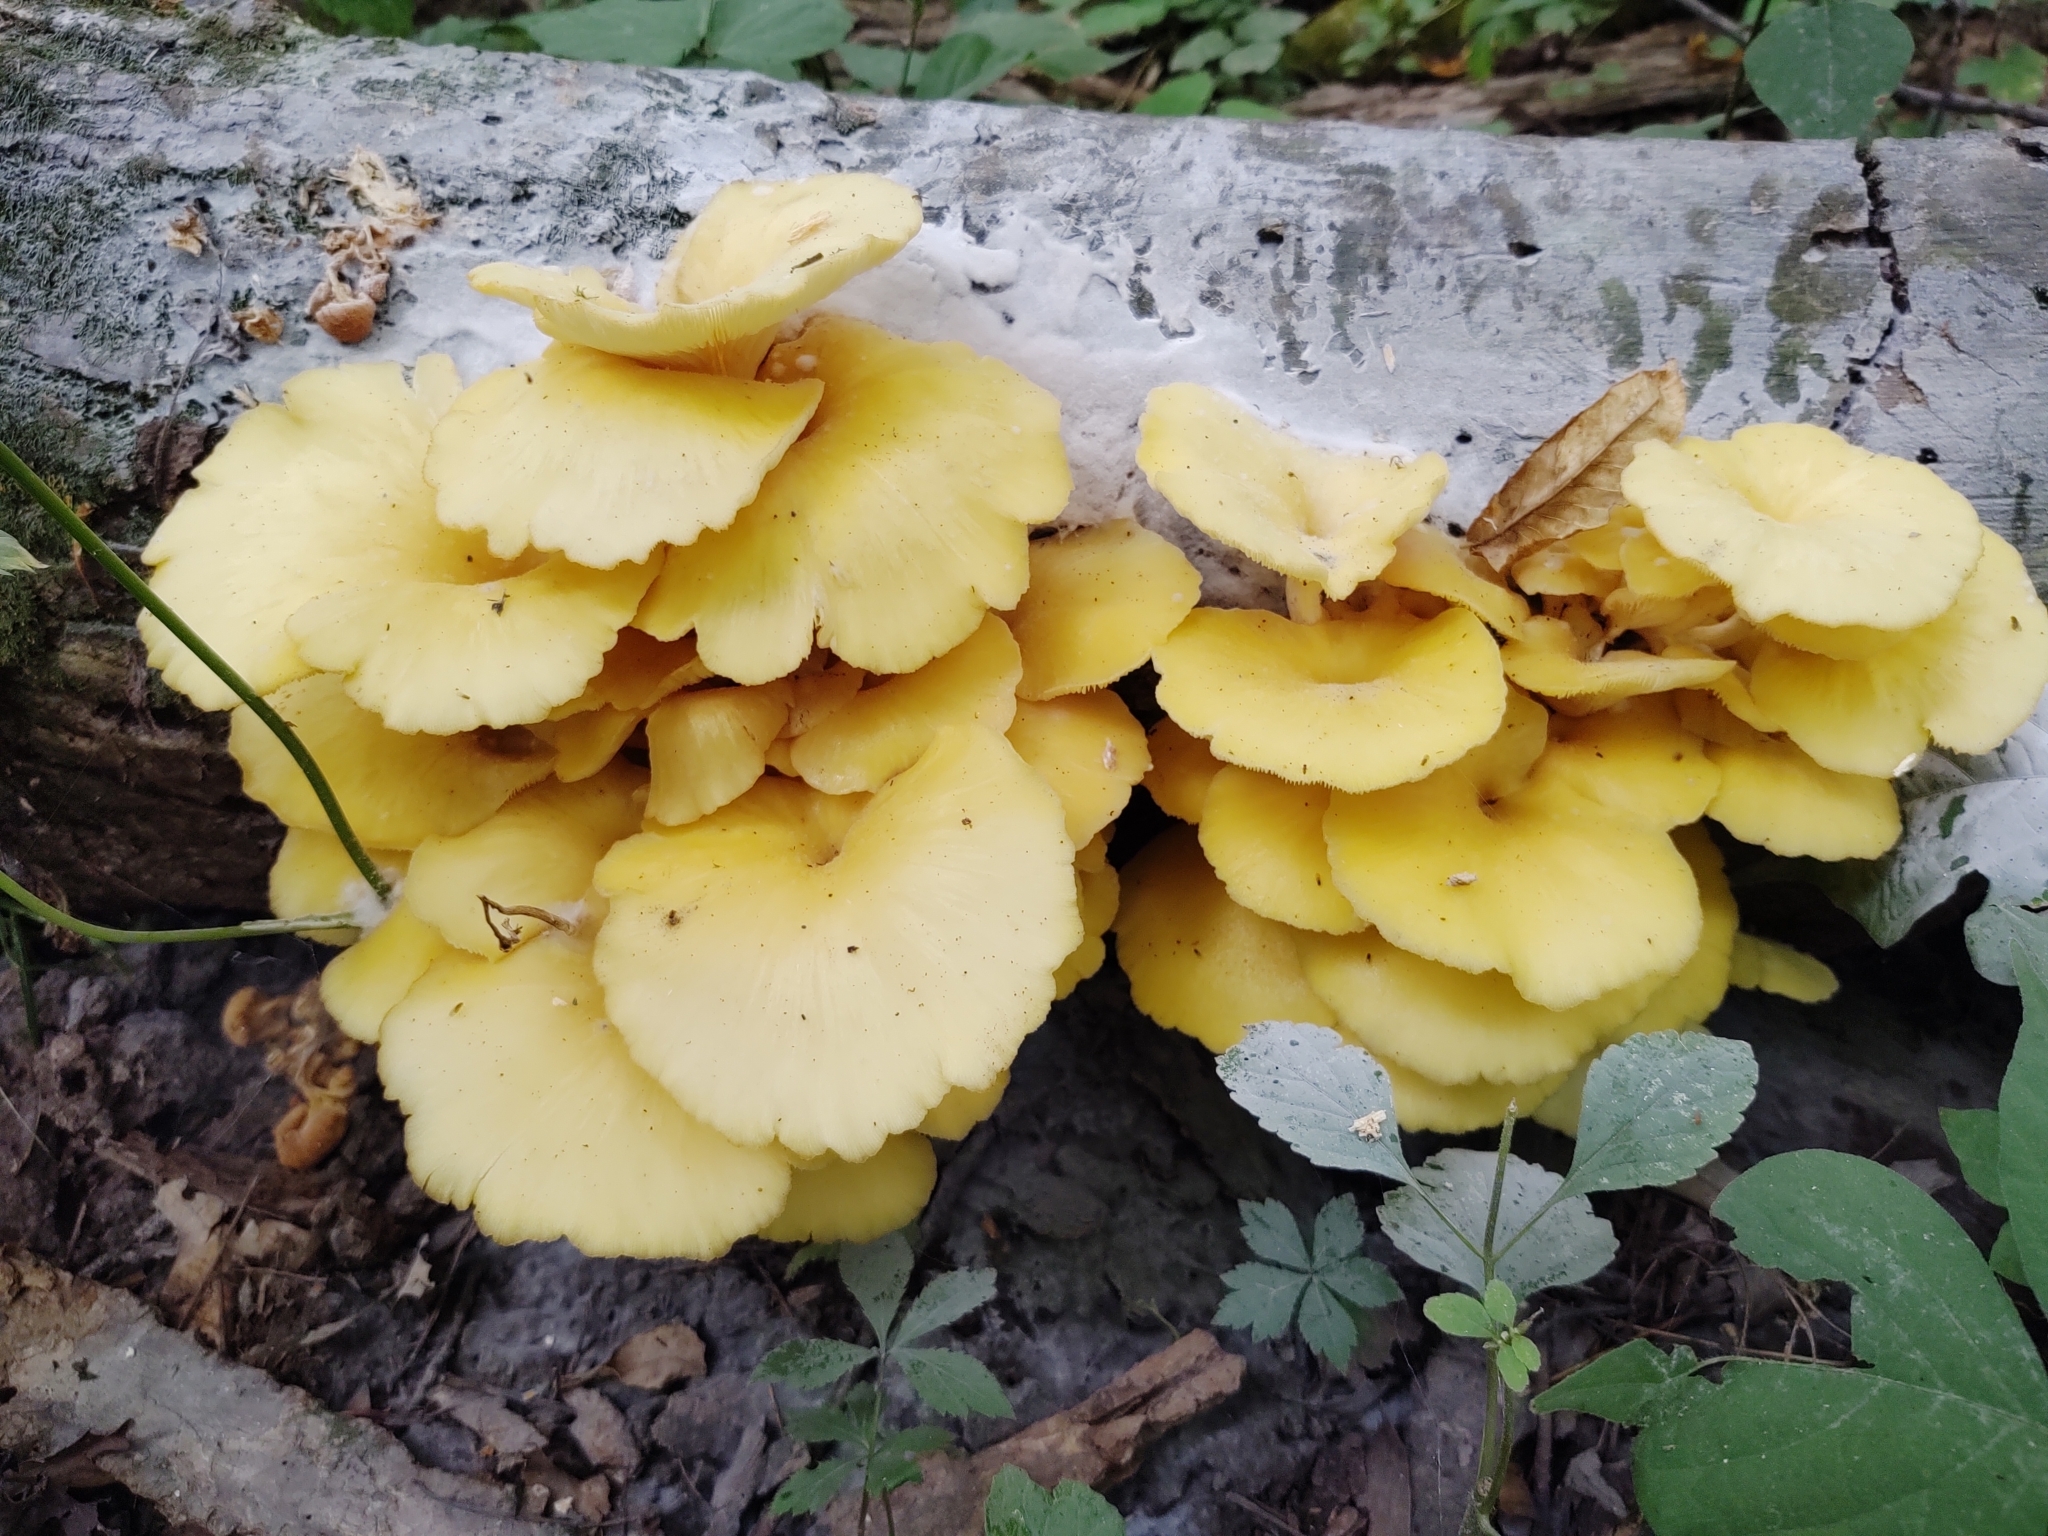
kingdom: Fungi
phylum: Basidiomycota
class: Agaricomycetes
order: Agaricales
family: Pleurotaceae
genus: Pleurotus
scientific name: Pleurotus citrinopileatus
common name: Golden oyster mushroom
